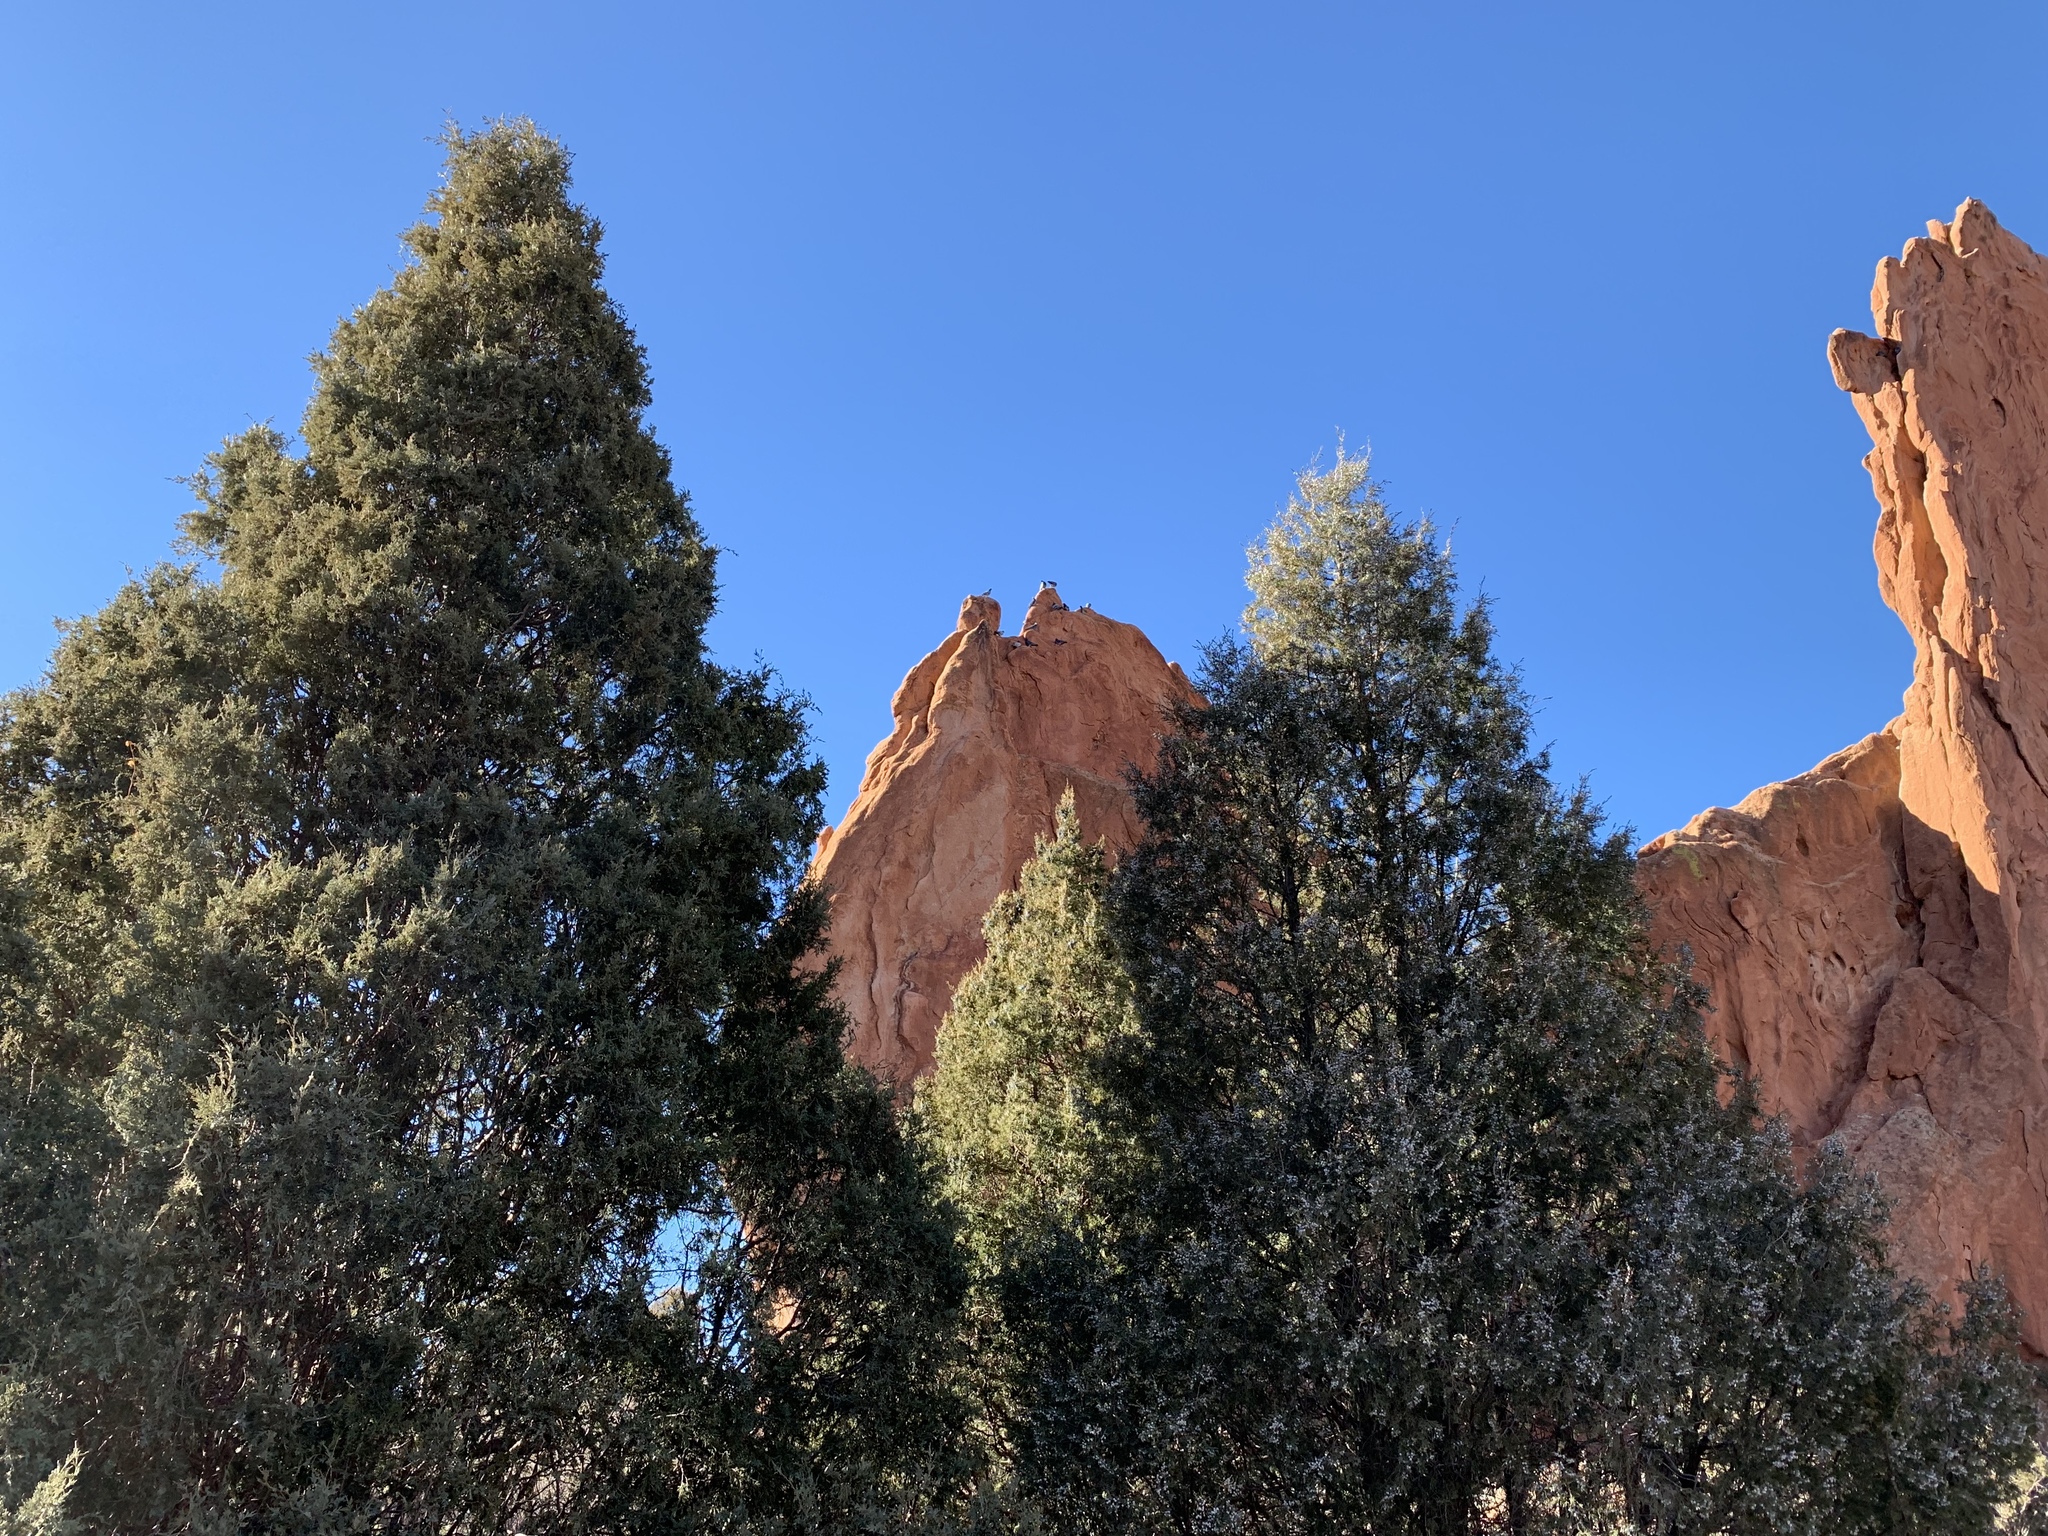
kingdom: Plantae
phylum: Tracheophyta
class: Pinopsida
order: Pinales
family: Cupressaceae
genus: Juniperus
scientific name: Juniperus scopulorum
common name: Rocky mountain juniper
